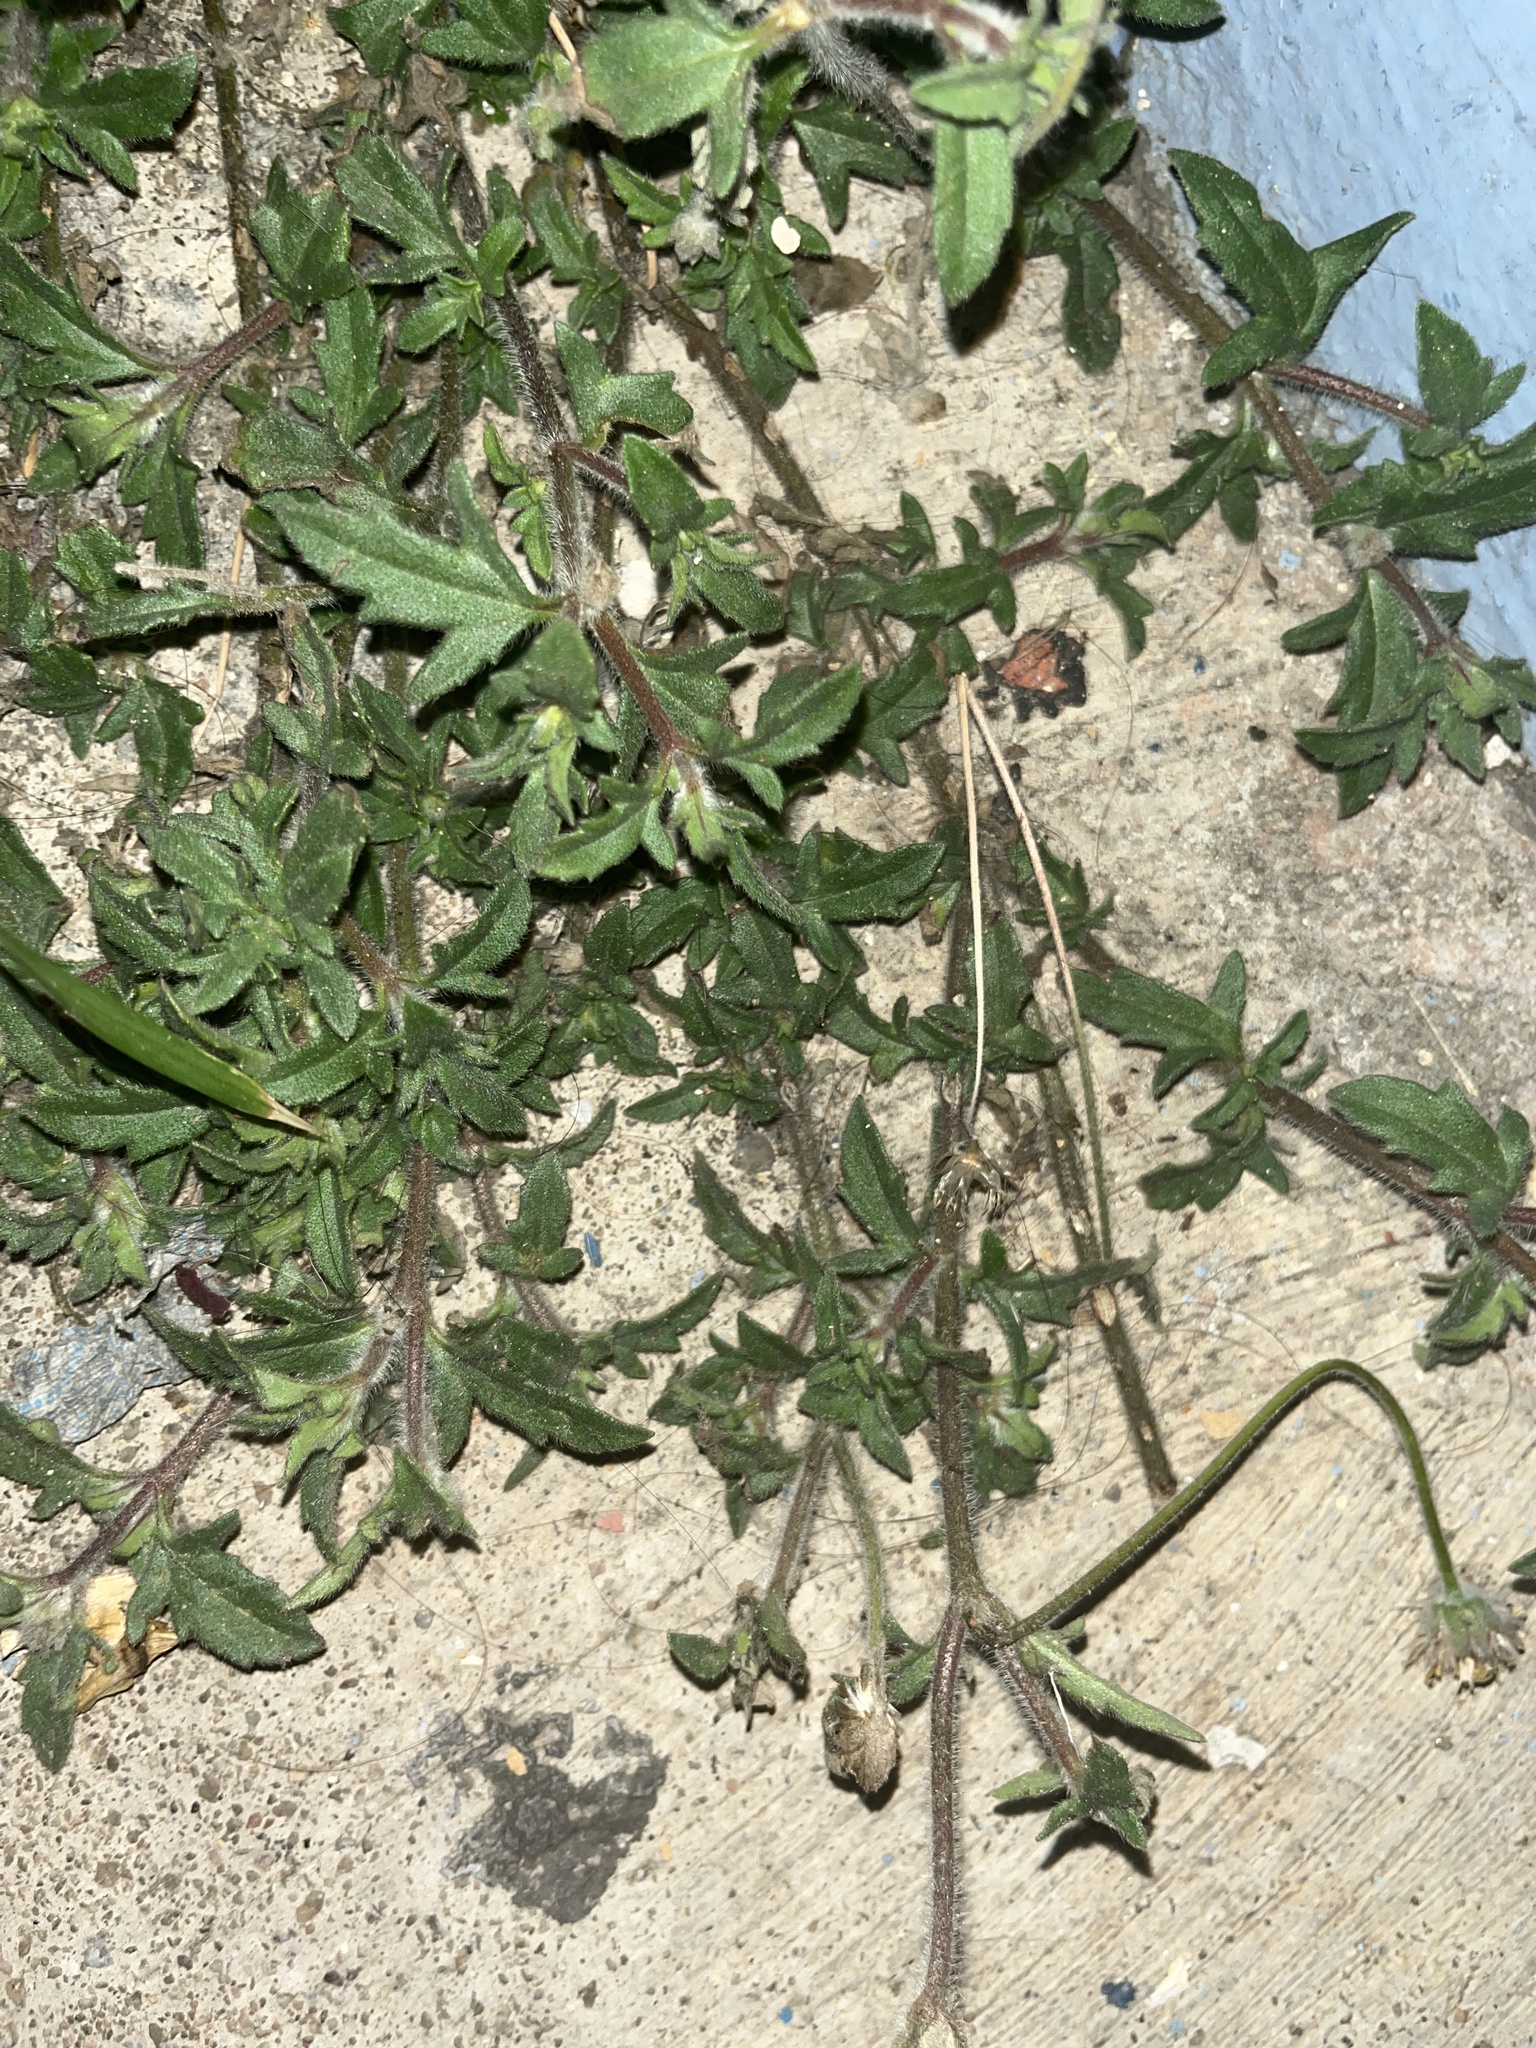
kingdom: Plantae
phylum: Tracheophyta
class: Magnoliopsida
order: Asterales
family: Asteraceae
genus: Tridax
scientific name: Tridax procumbens
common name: Coatbuttons
